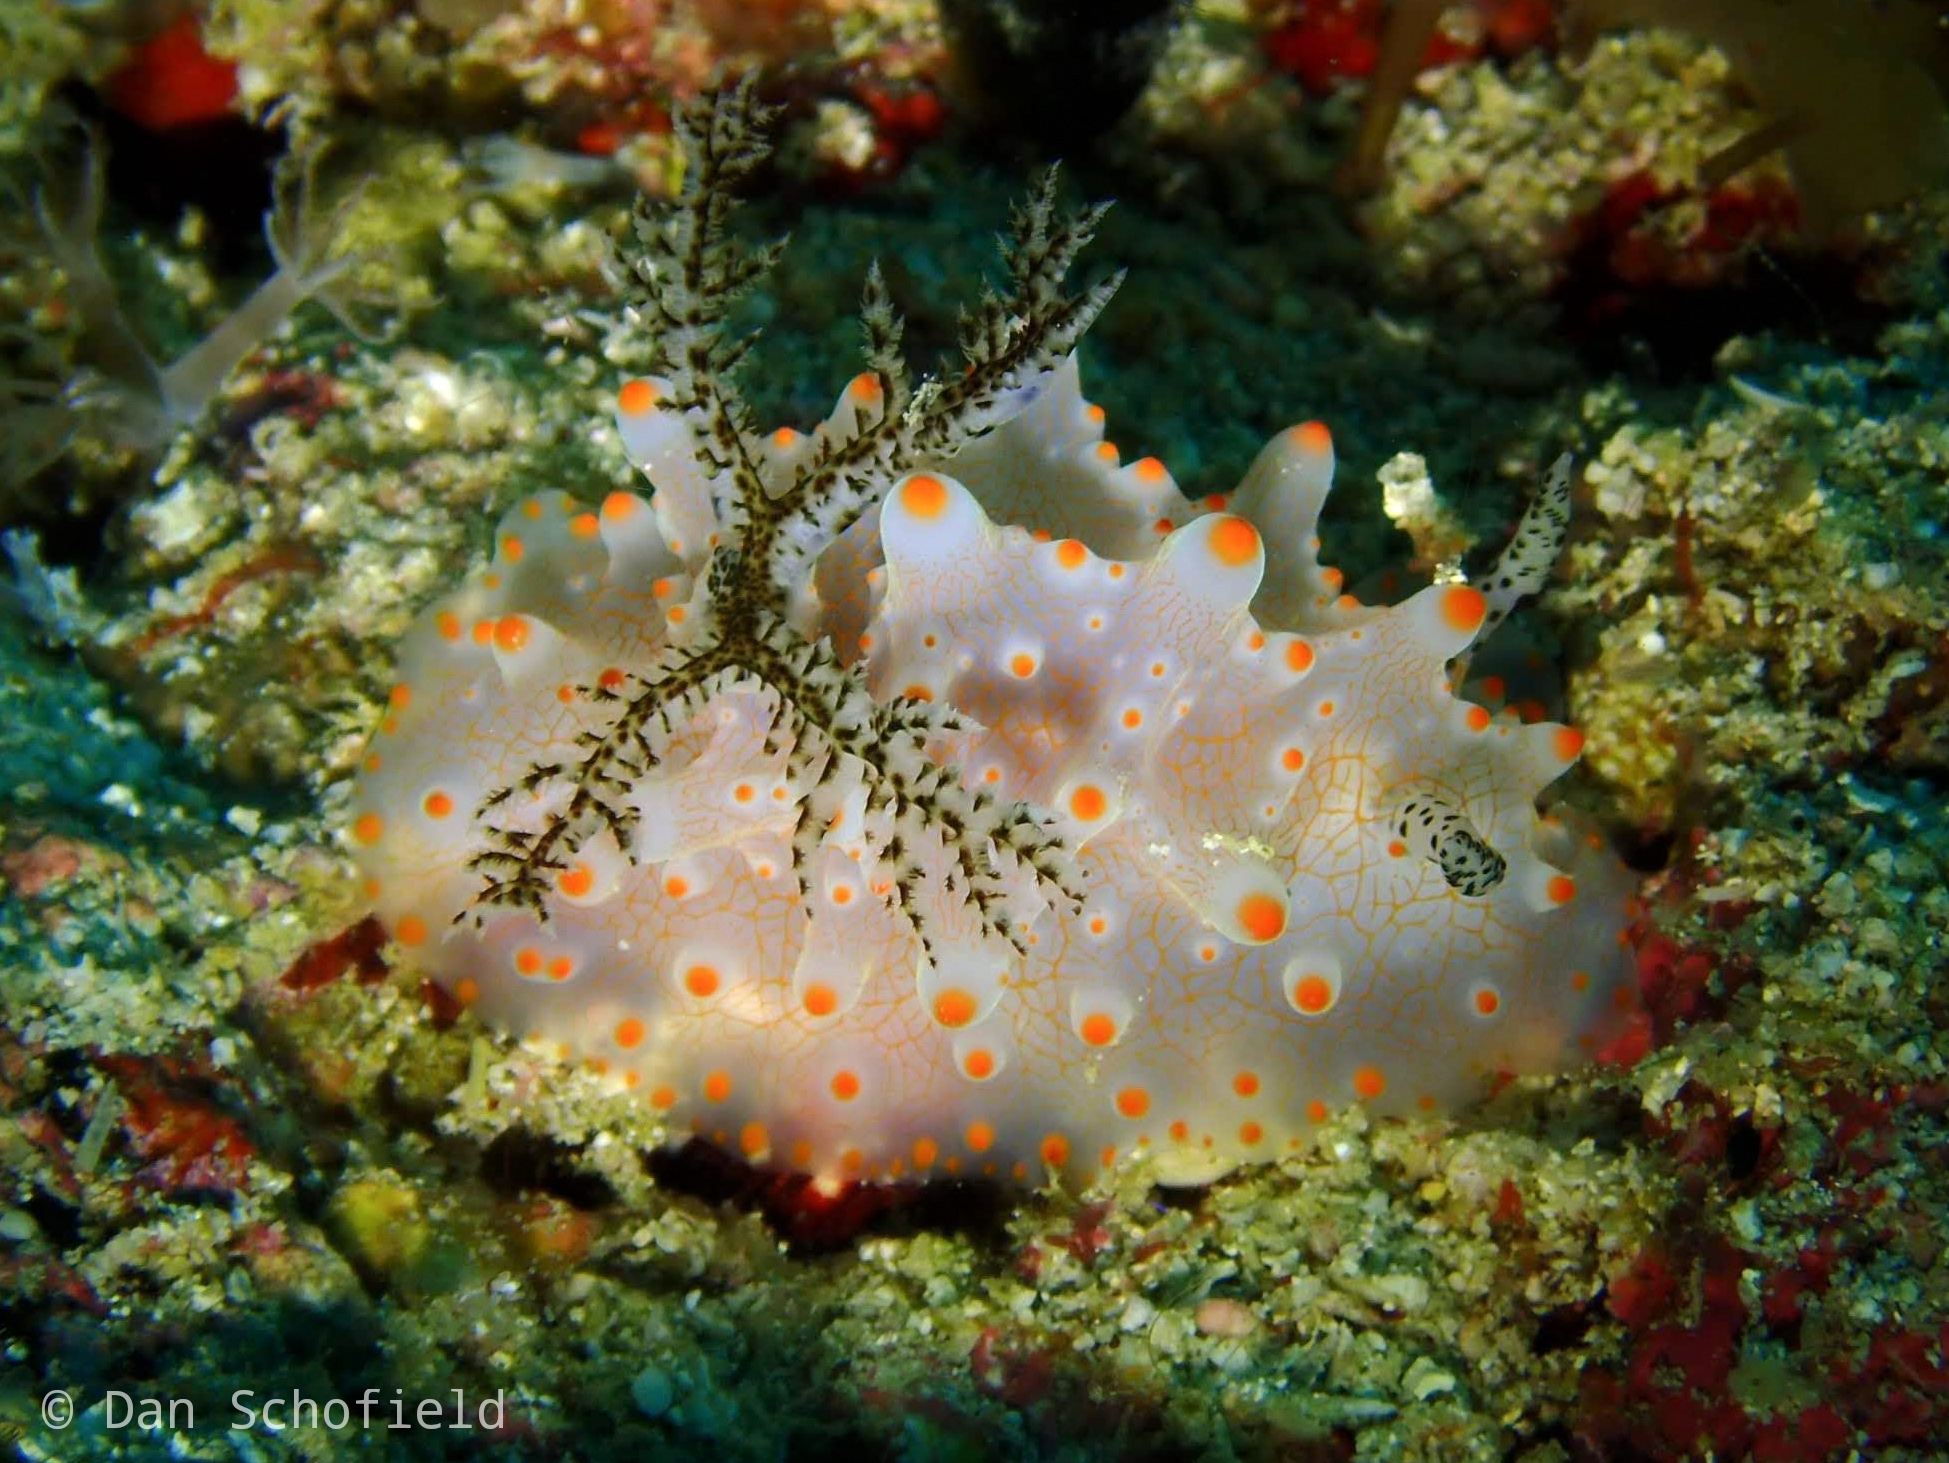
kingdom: Animalia
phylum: Mollusca
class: Gastropoda
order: Nudibranchia
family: Discodorididae
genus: Halgerda
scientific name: Halgerda batangas
